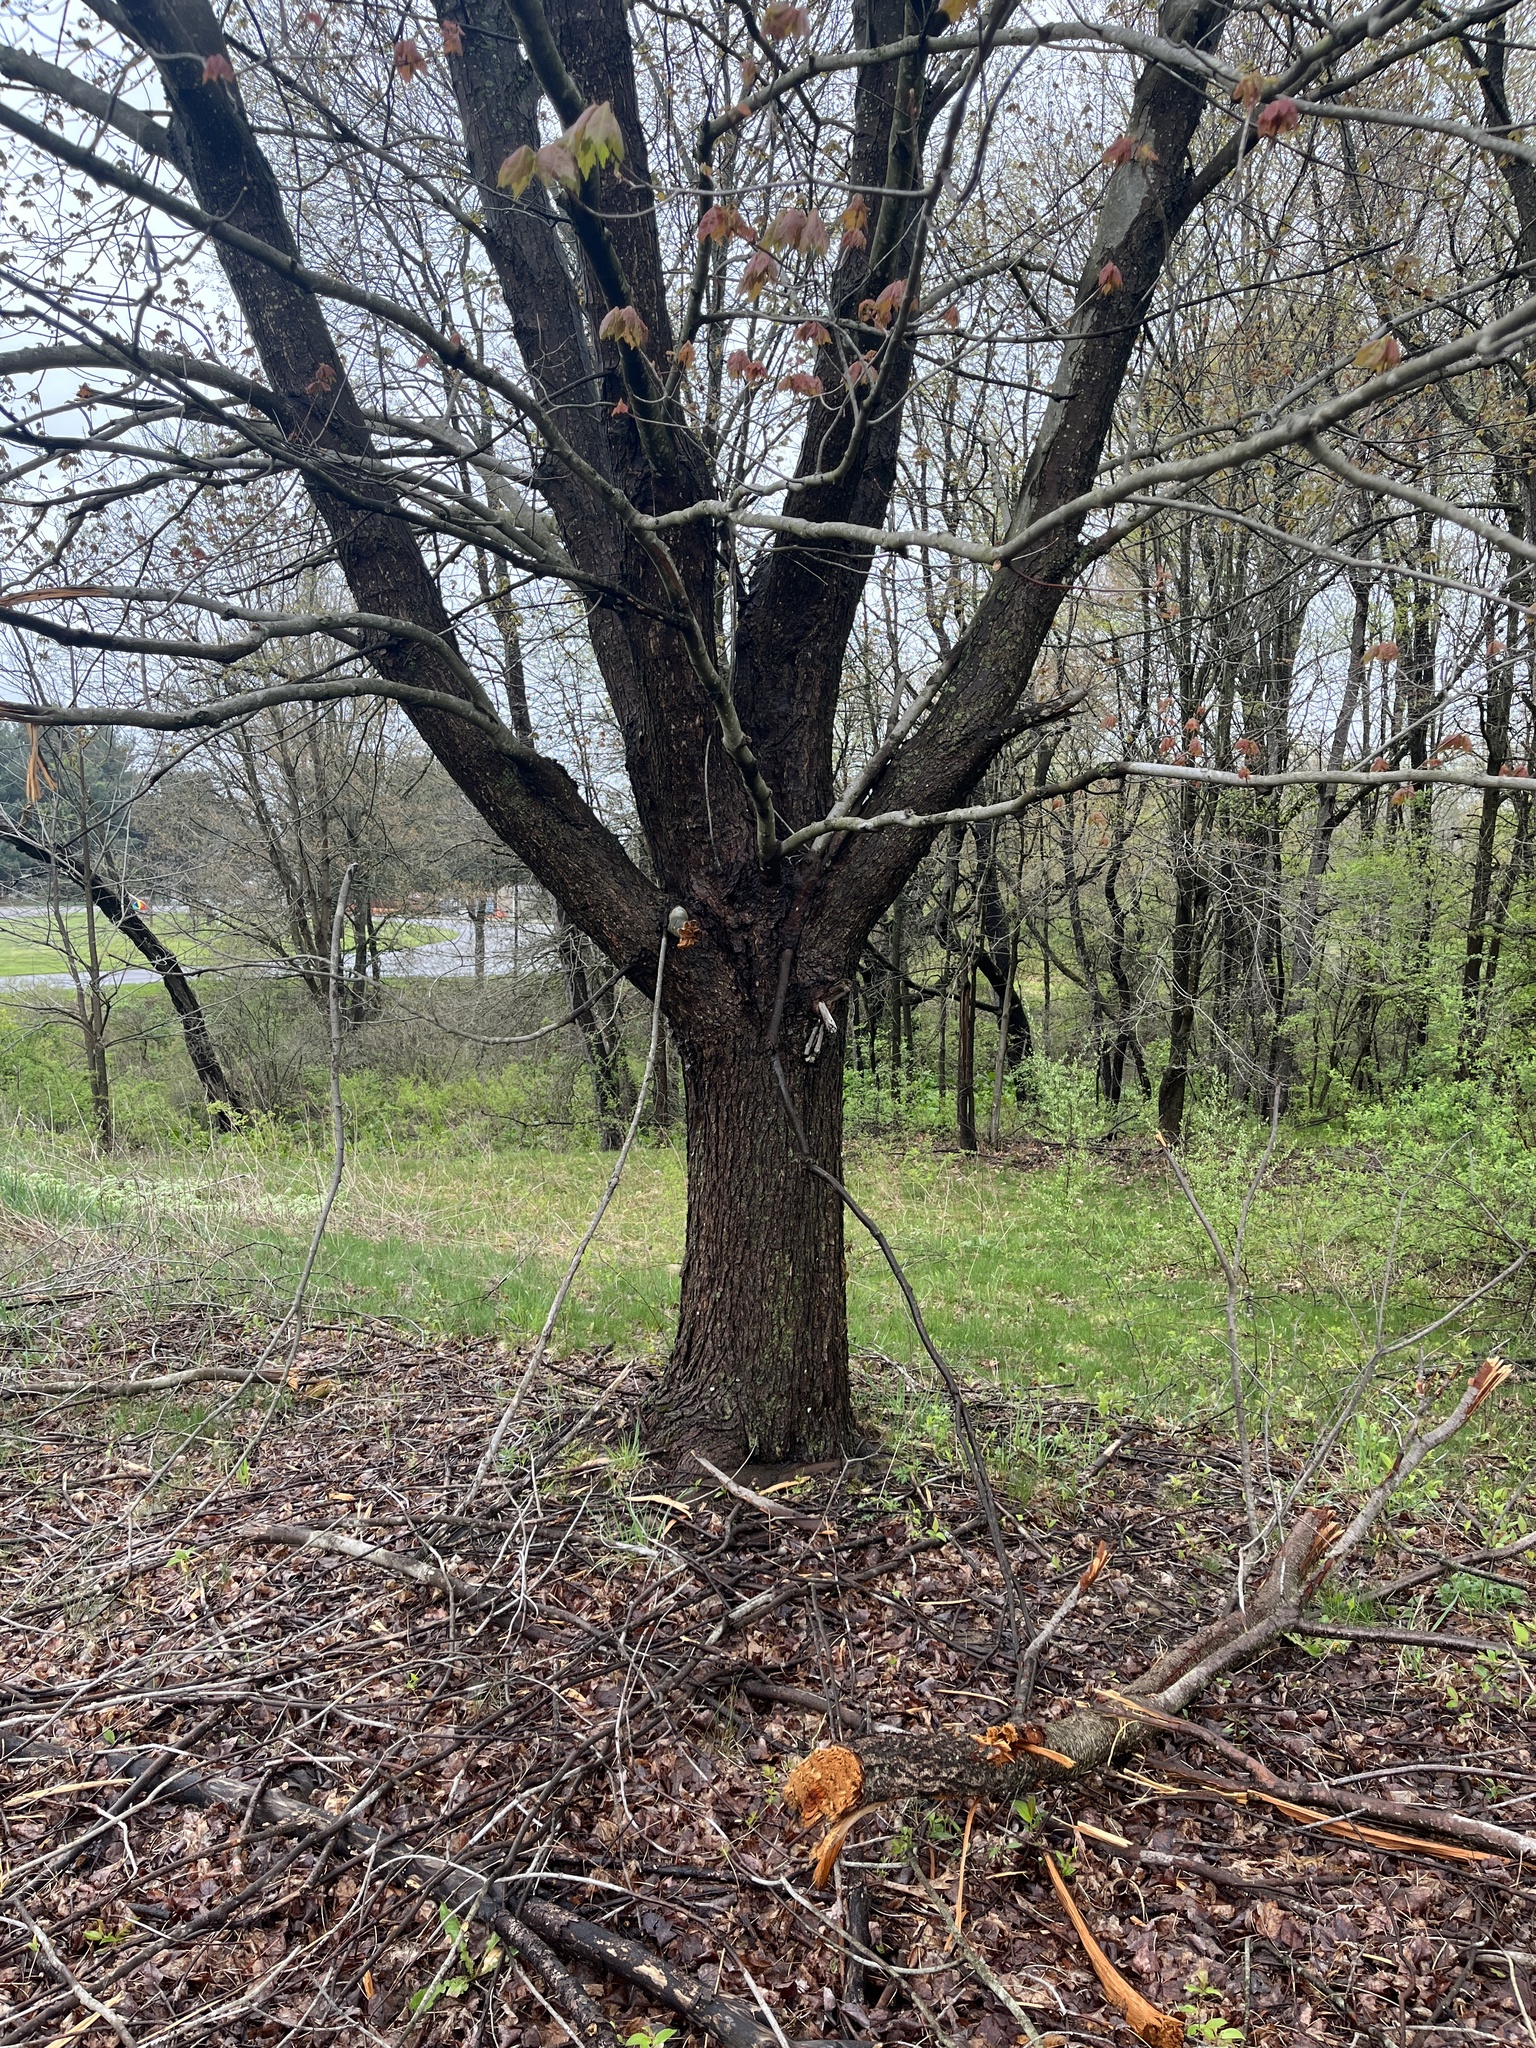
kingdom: Plantae
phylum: Tracheophyta
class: Magnoliopsida
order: Sapindales
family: Sapindaceae
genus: Acer
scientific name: Acer rubrum
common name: Red maple
